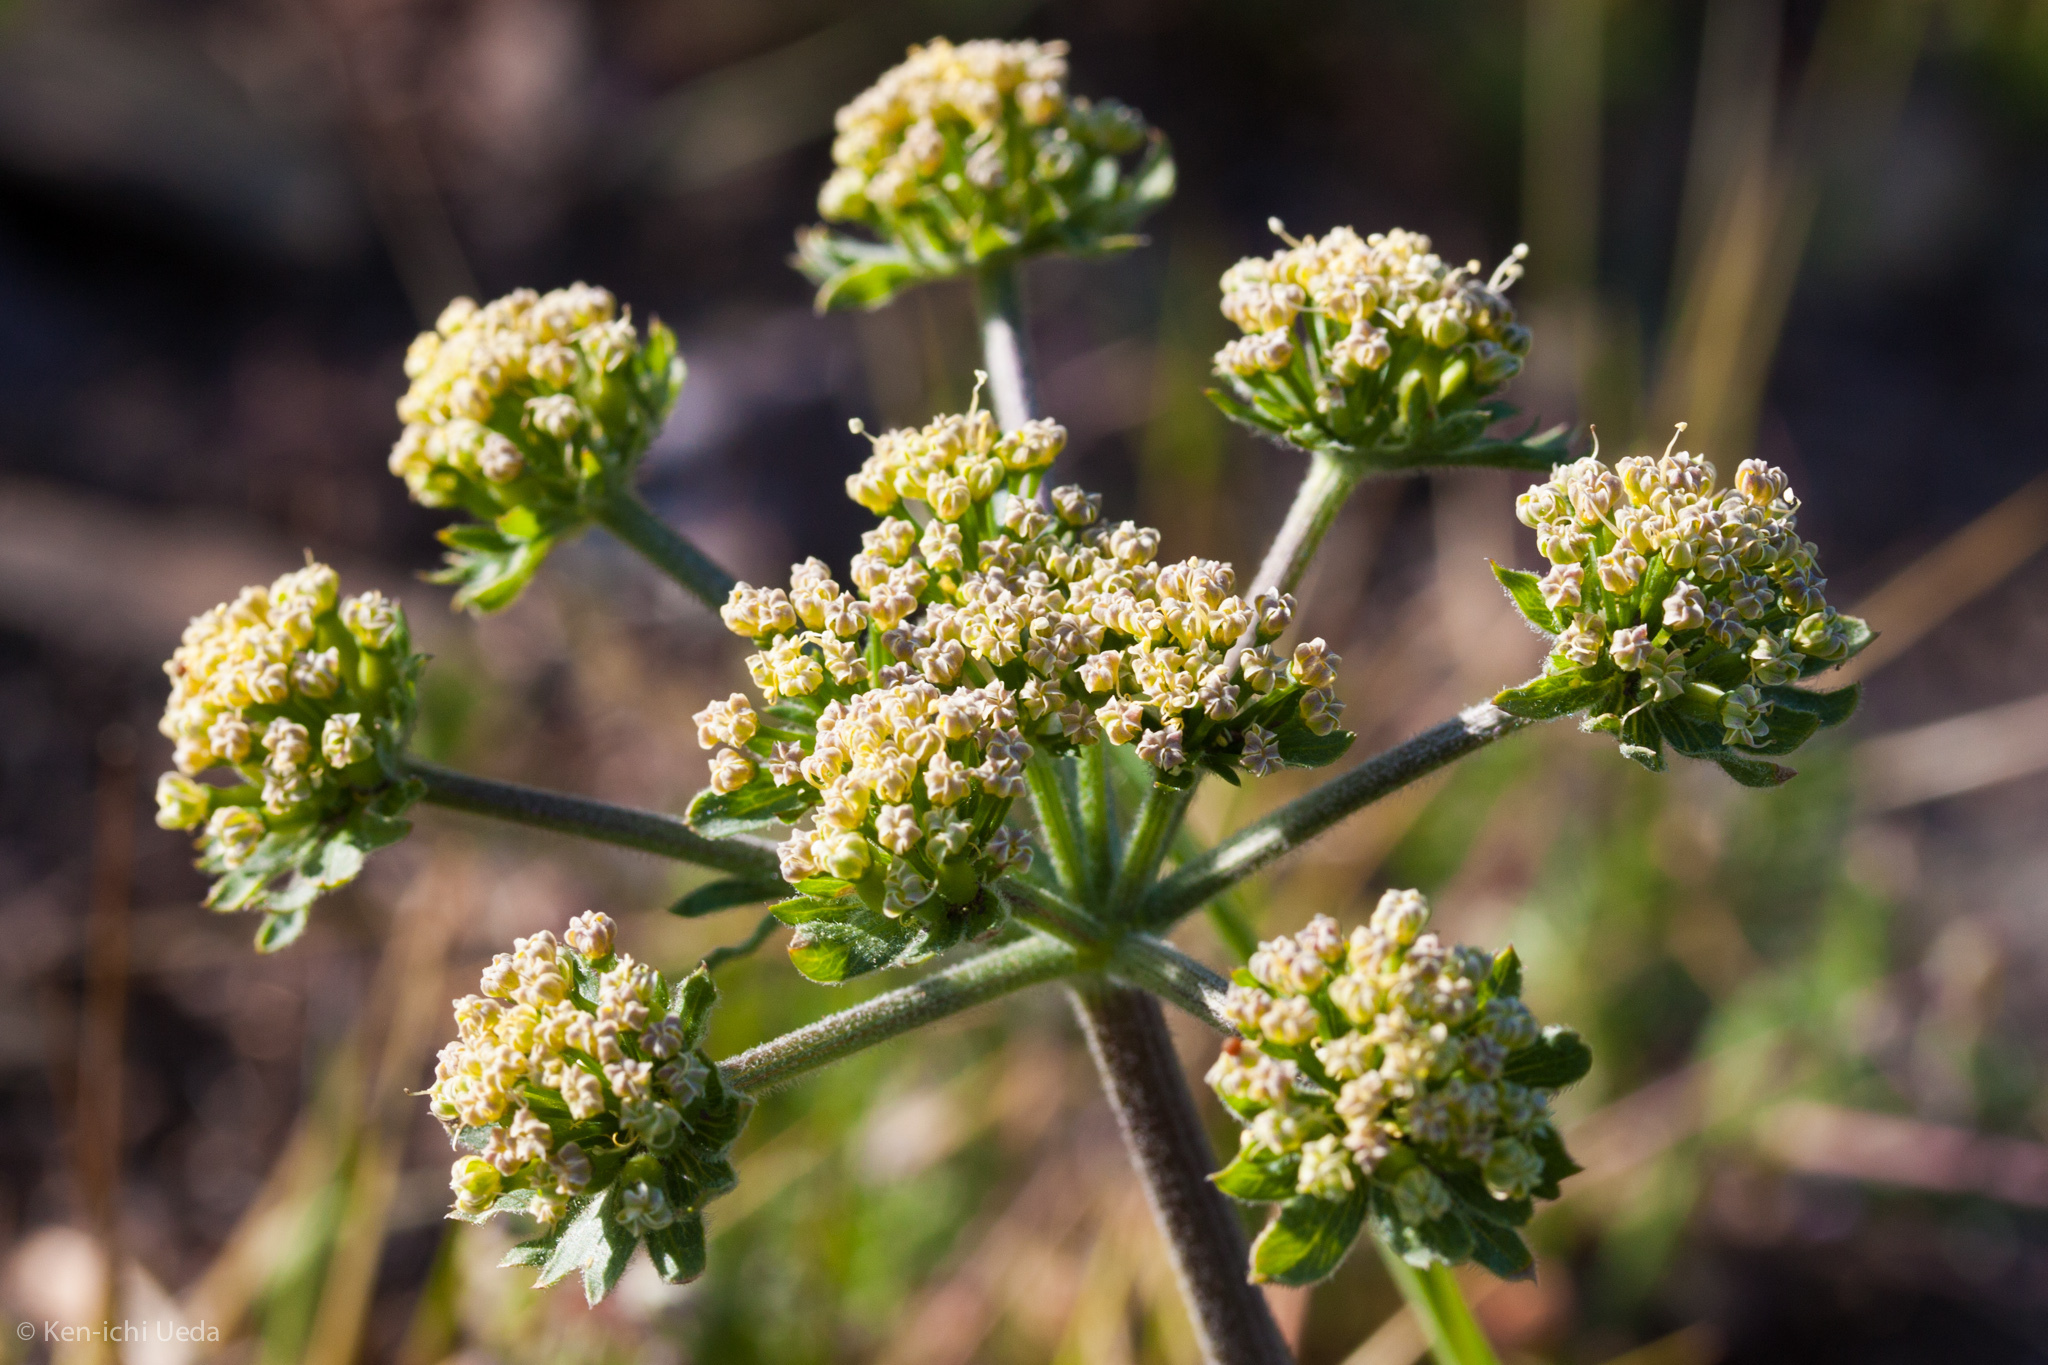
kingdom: Plantae
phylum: Tracheophyta
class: Magnoliopsida
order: Apiales
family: Apiaceae
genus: Lomatium
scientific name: Lomatium macrocarpum
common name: Big-seed biscuitroot
